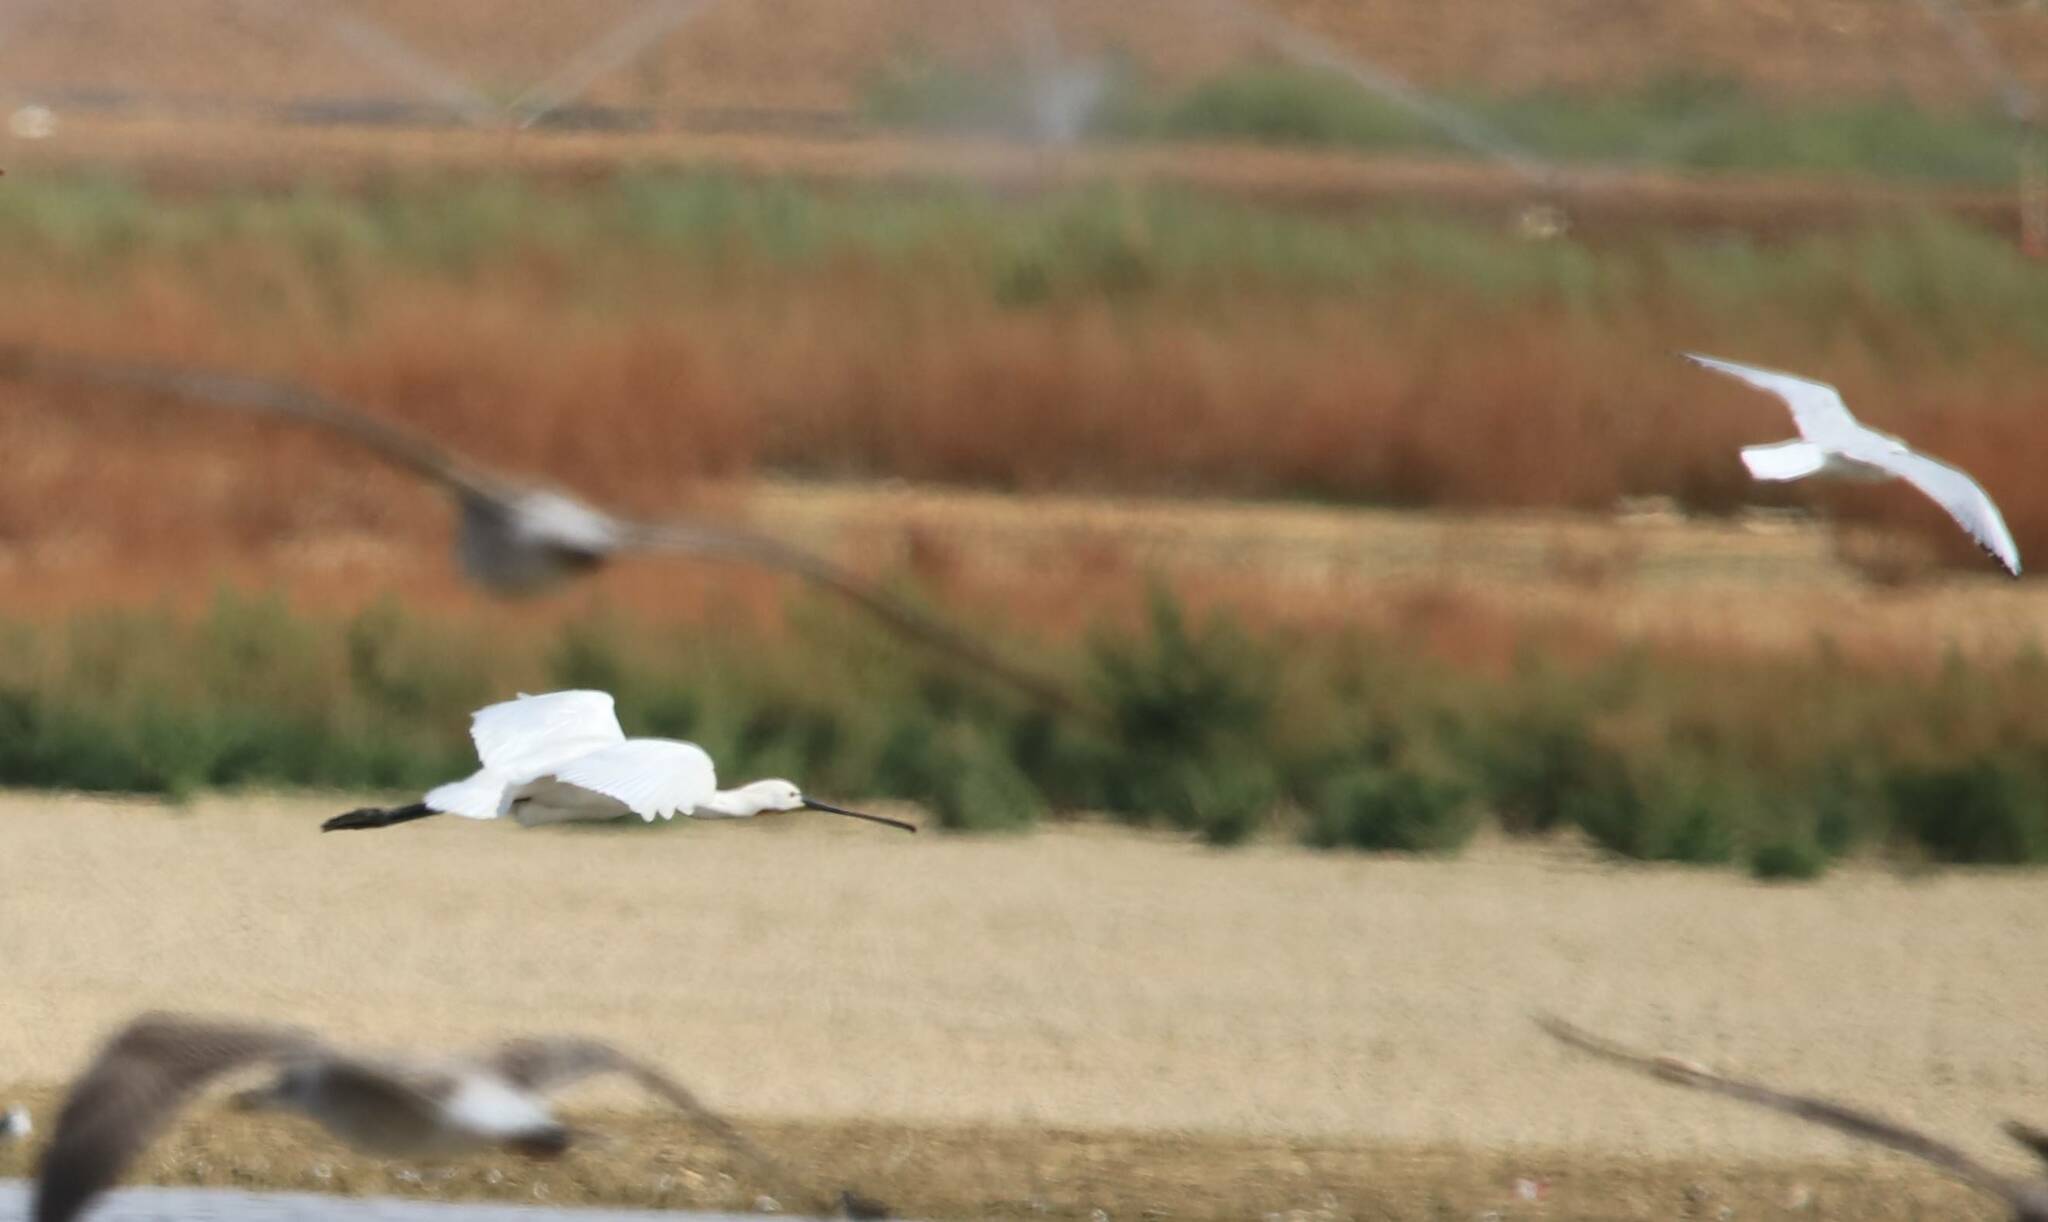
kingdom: Animalia
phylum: Chordata
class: Aves
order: Pelecaniformes
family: Threskiornithidae
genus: Platalea
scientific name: Platalea leucorodia
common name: Eurasian spoonbill
